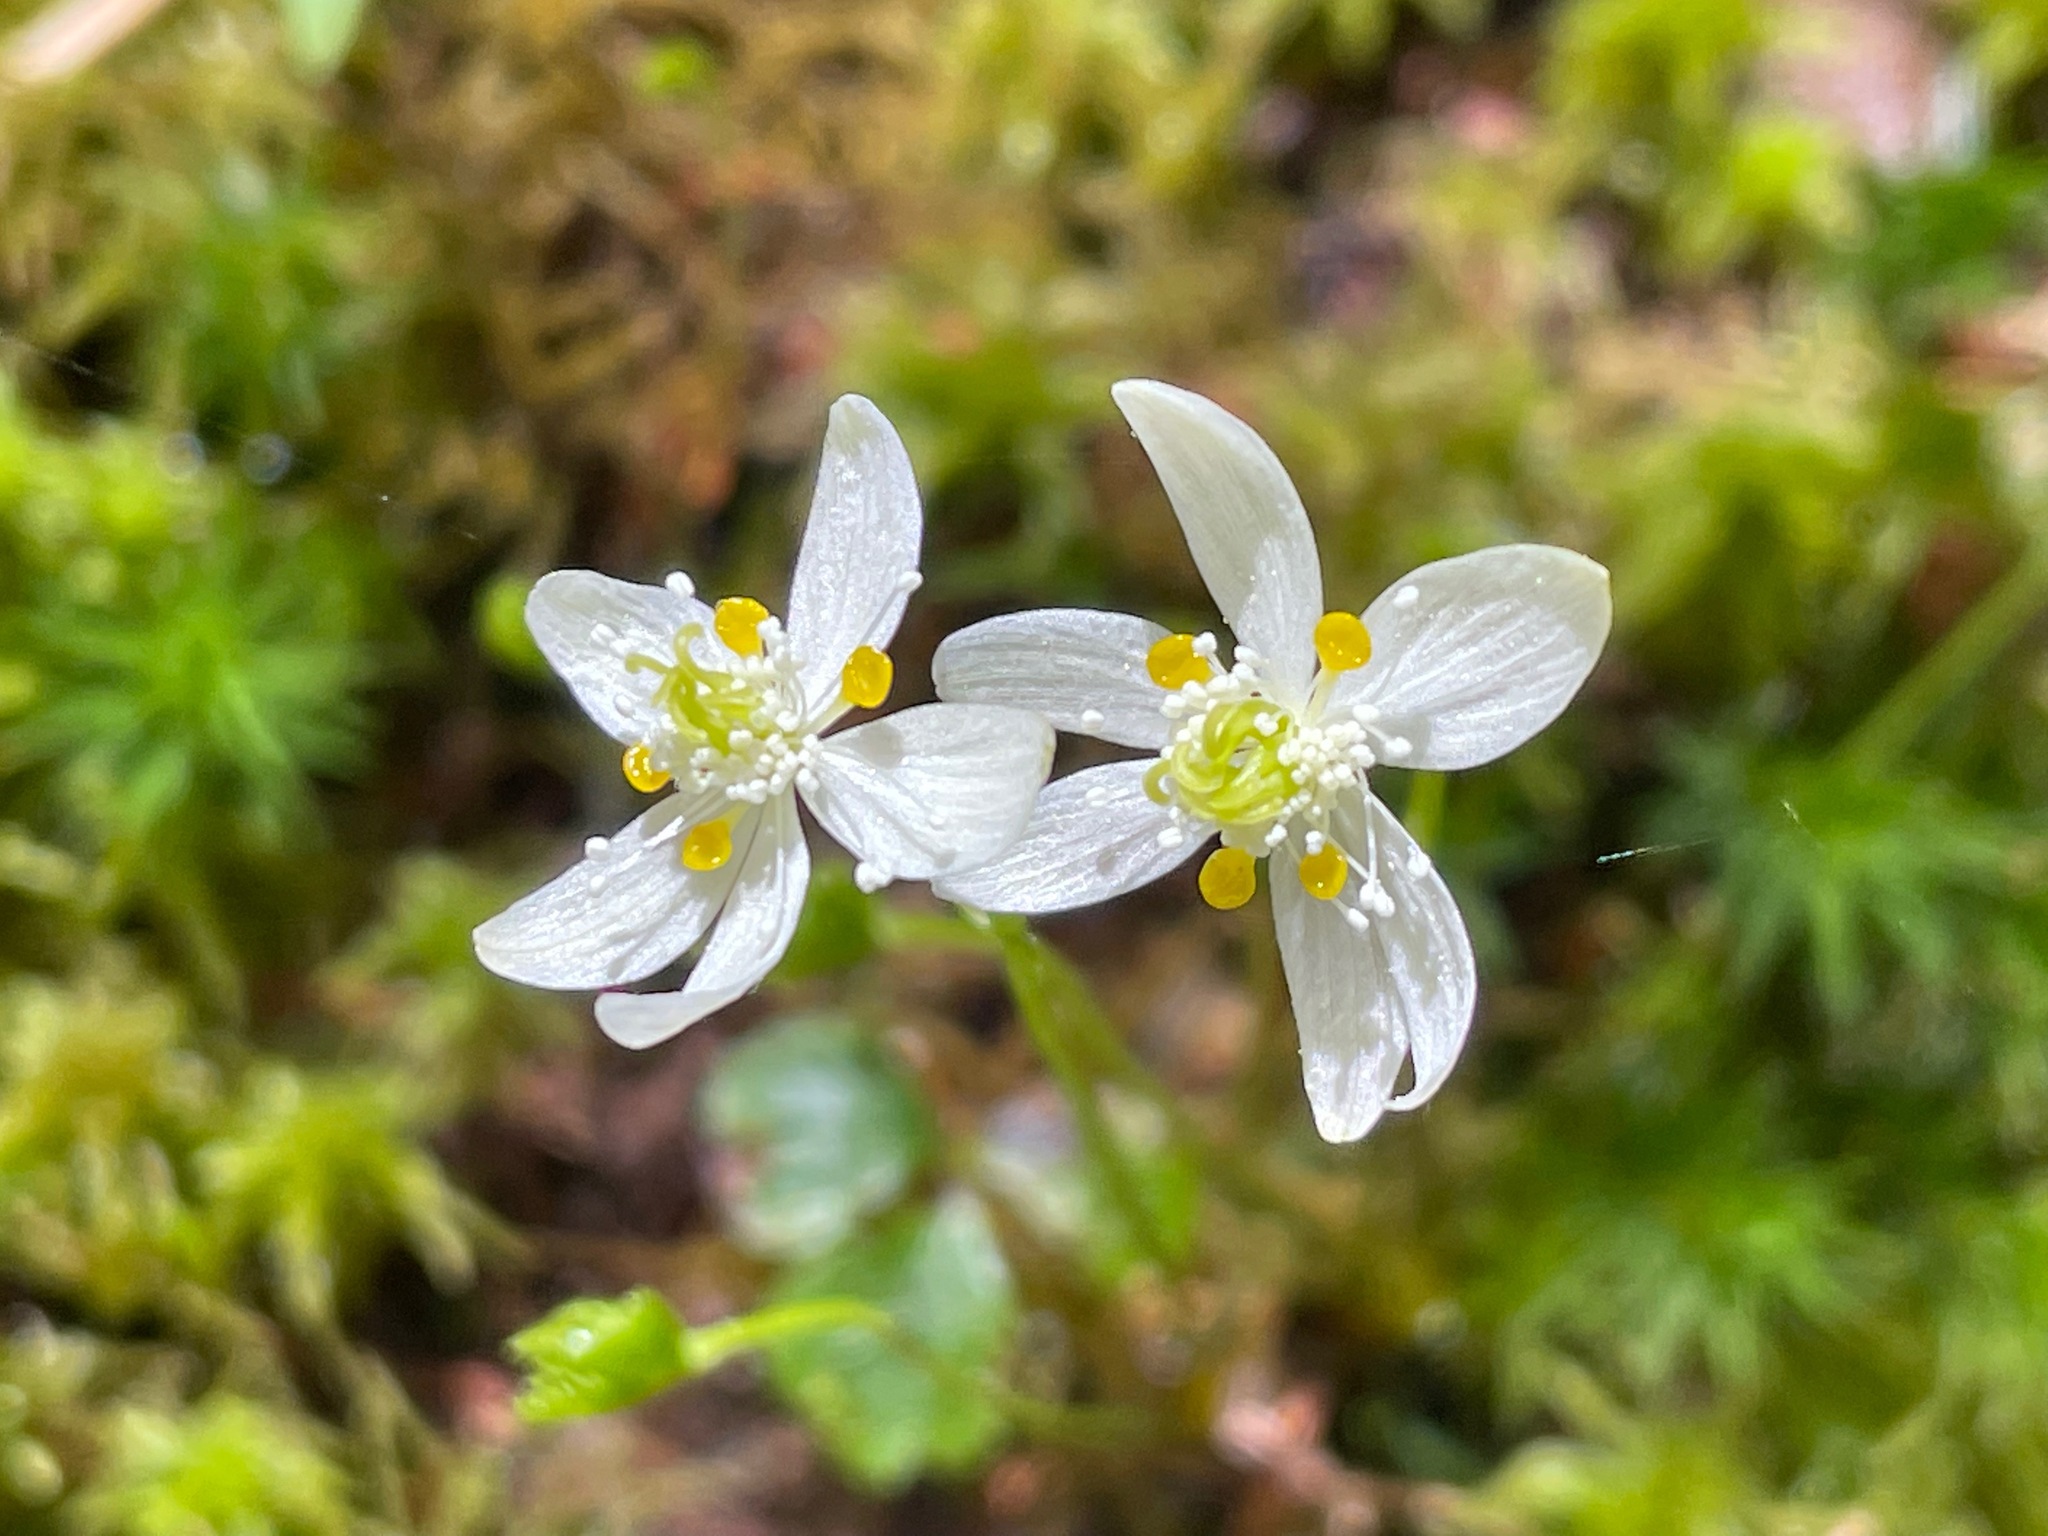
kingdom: Plantae
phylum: Tracheophyta
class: Magnoliopsida
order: Ranunculales
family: Ranunculaceae
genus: Coptis
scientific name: Coptis trifolia
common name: Canker-root
